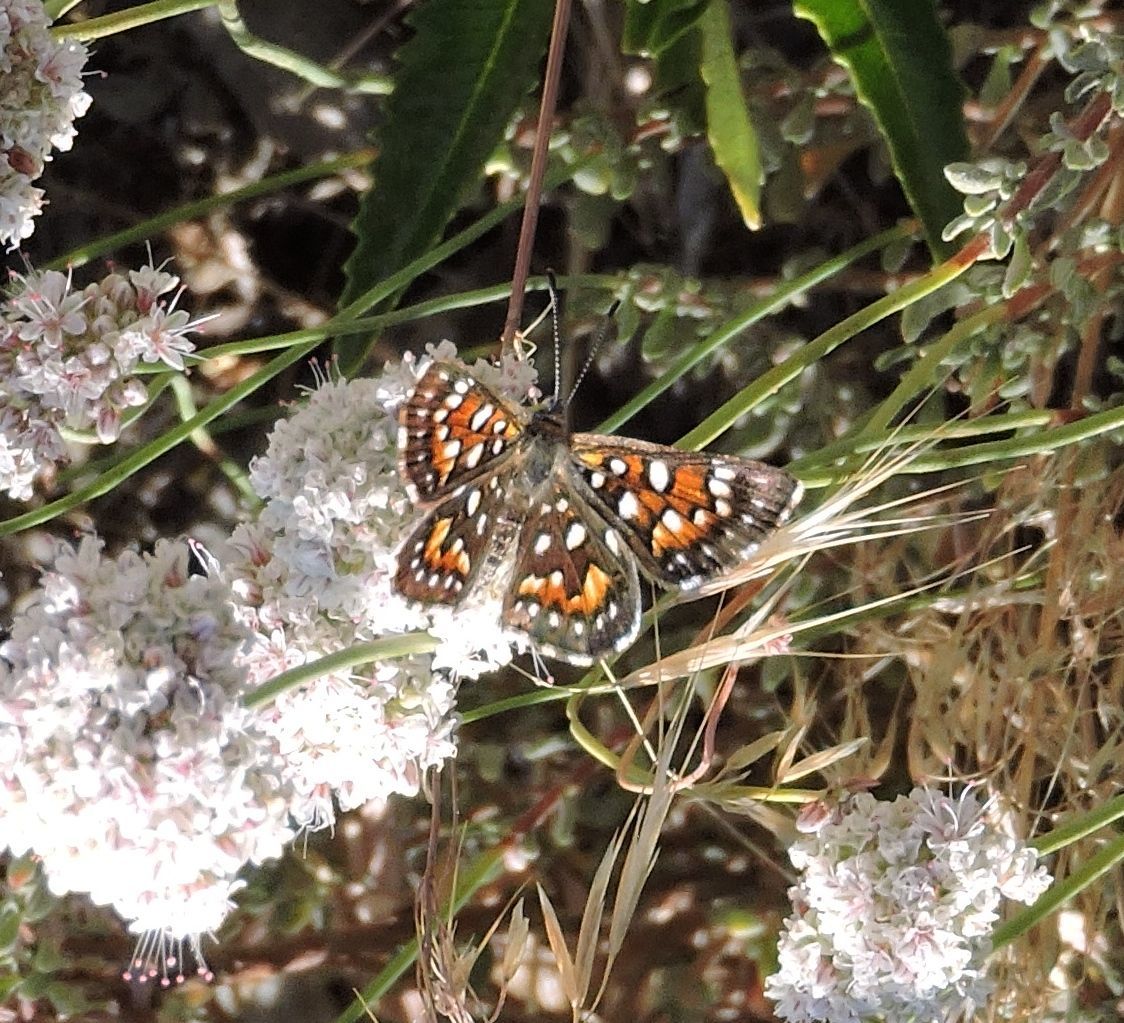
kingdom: Animalia
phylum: Arthropoda
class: Insecta
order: Lepidoptera
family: Riodinidae
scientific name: Riodinidae
